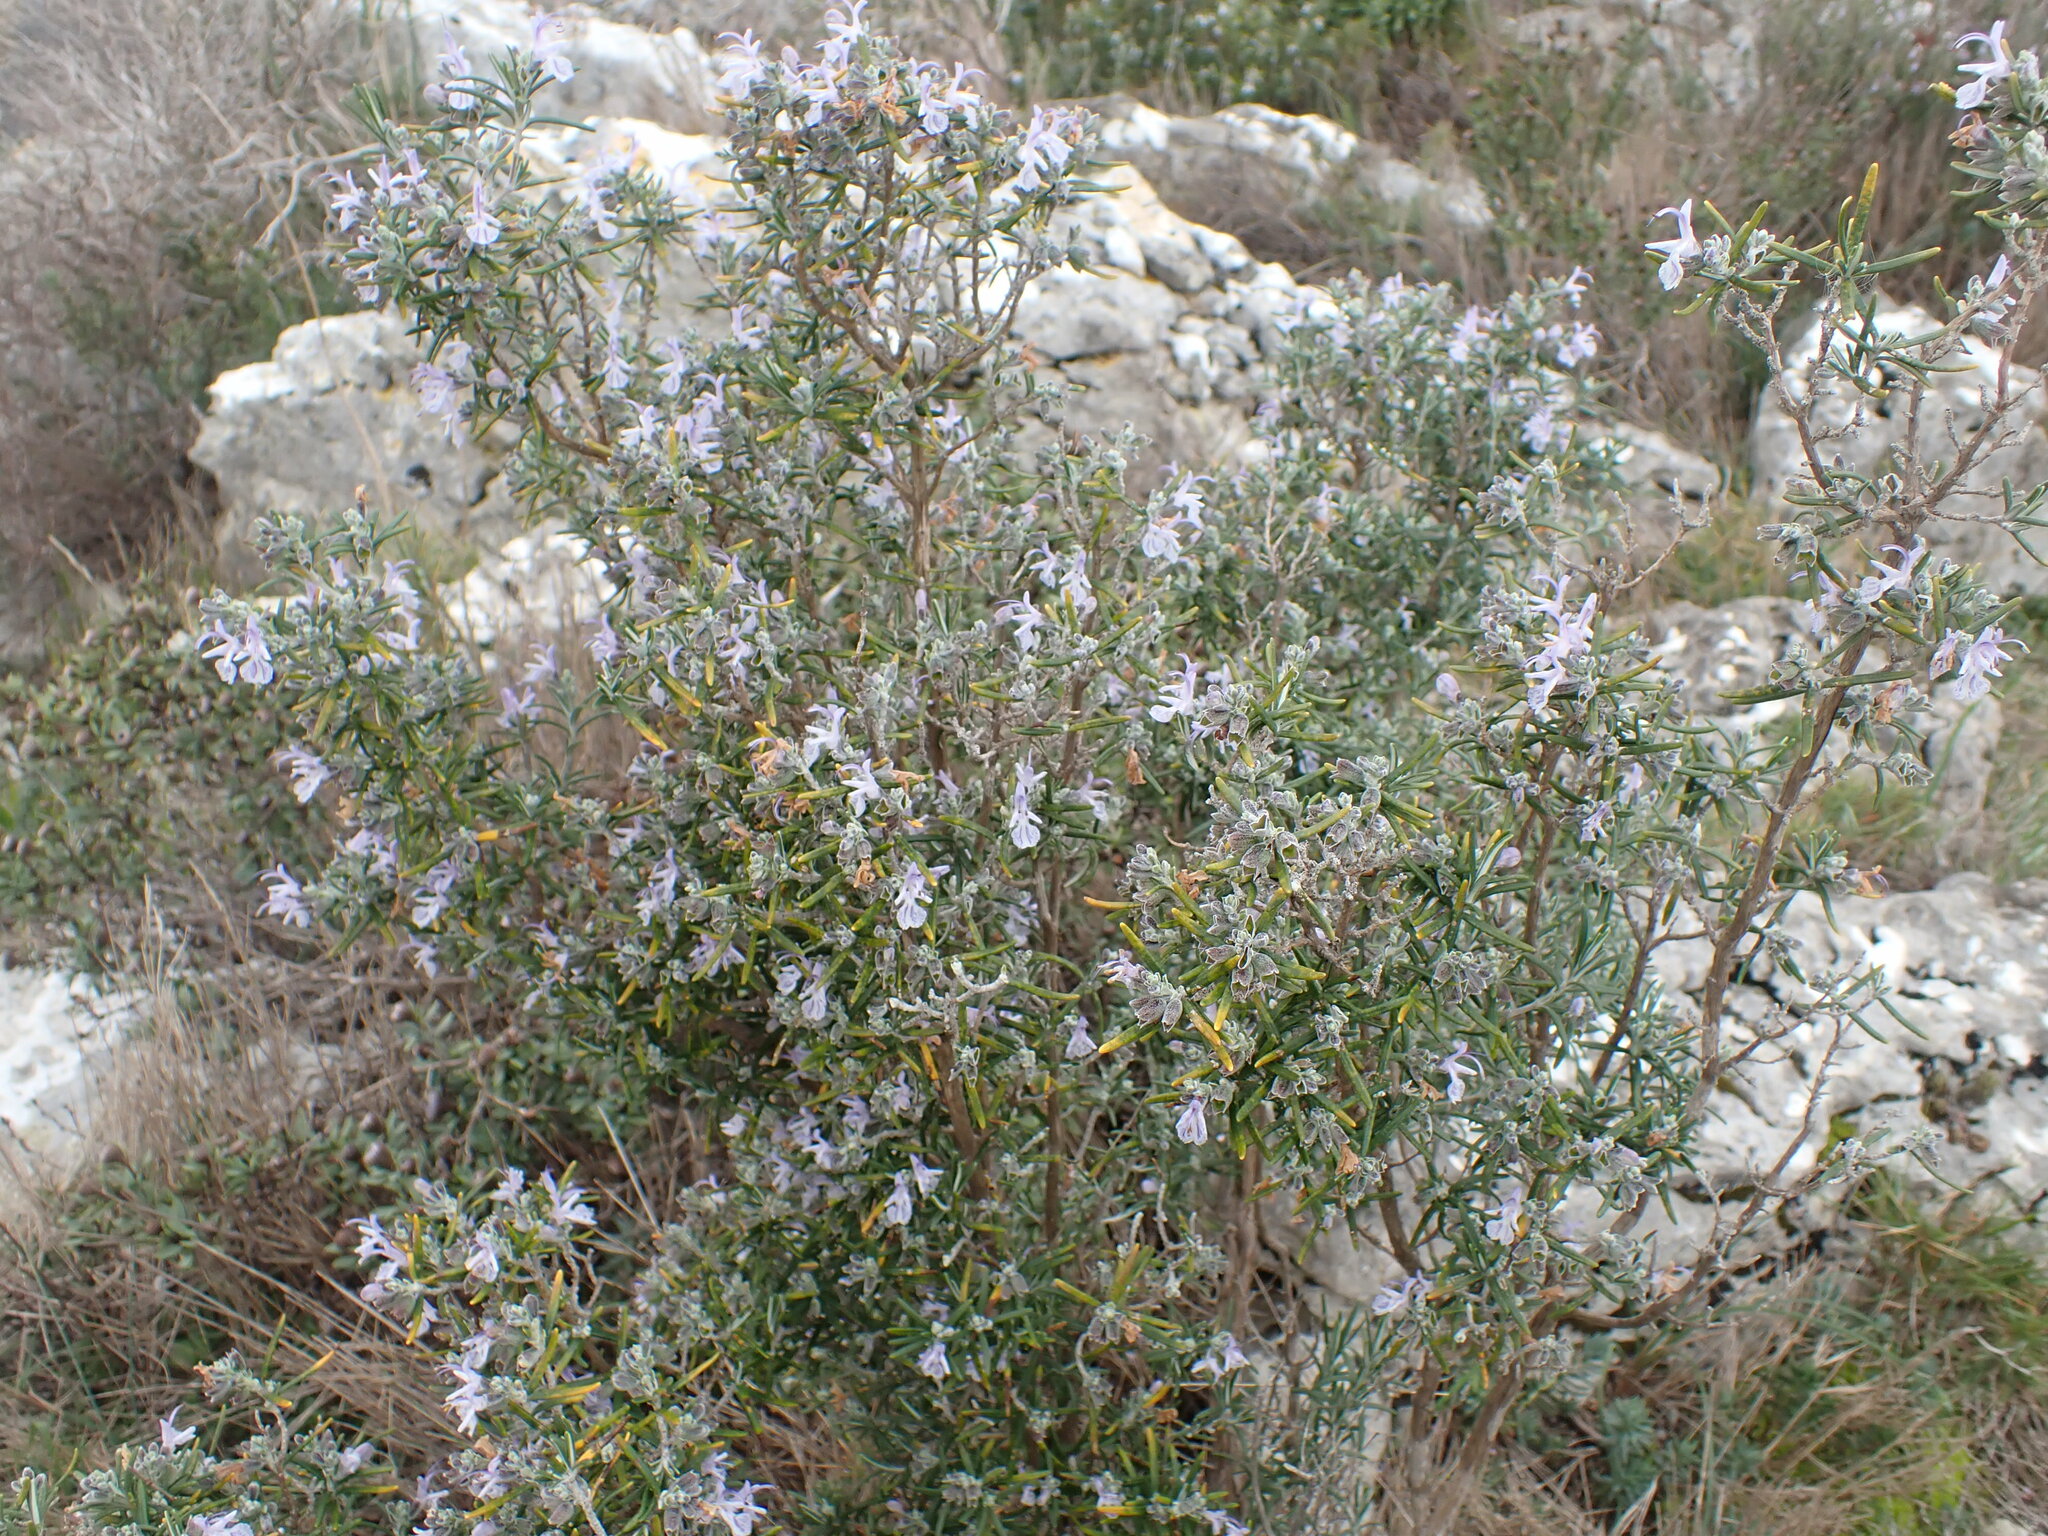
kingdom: Plantae
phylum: Tracheophyta
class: Magnoliopsida
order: Lamiales
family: Lamiaceae
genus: Salvia
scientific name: Salvia rosmarinus
